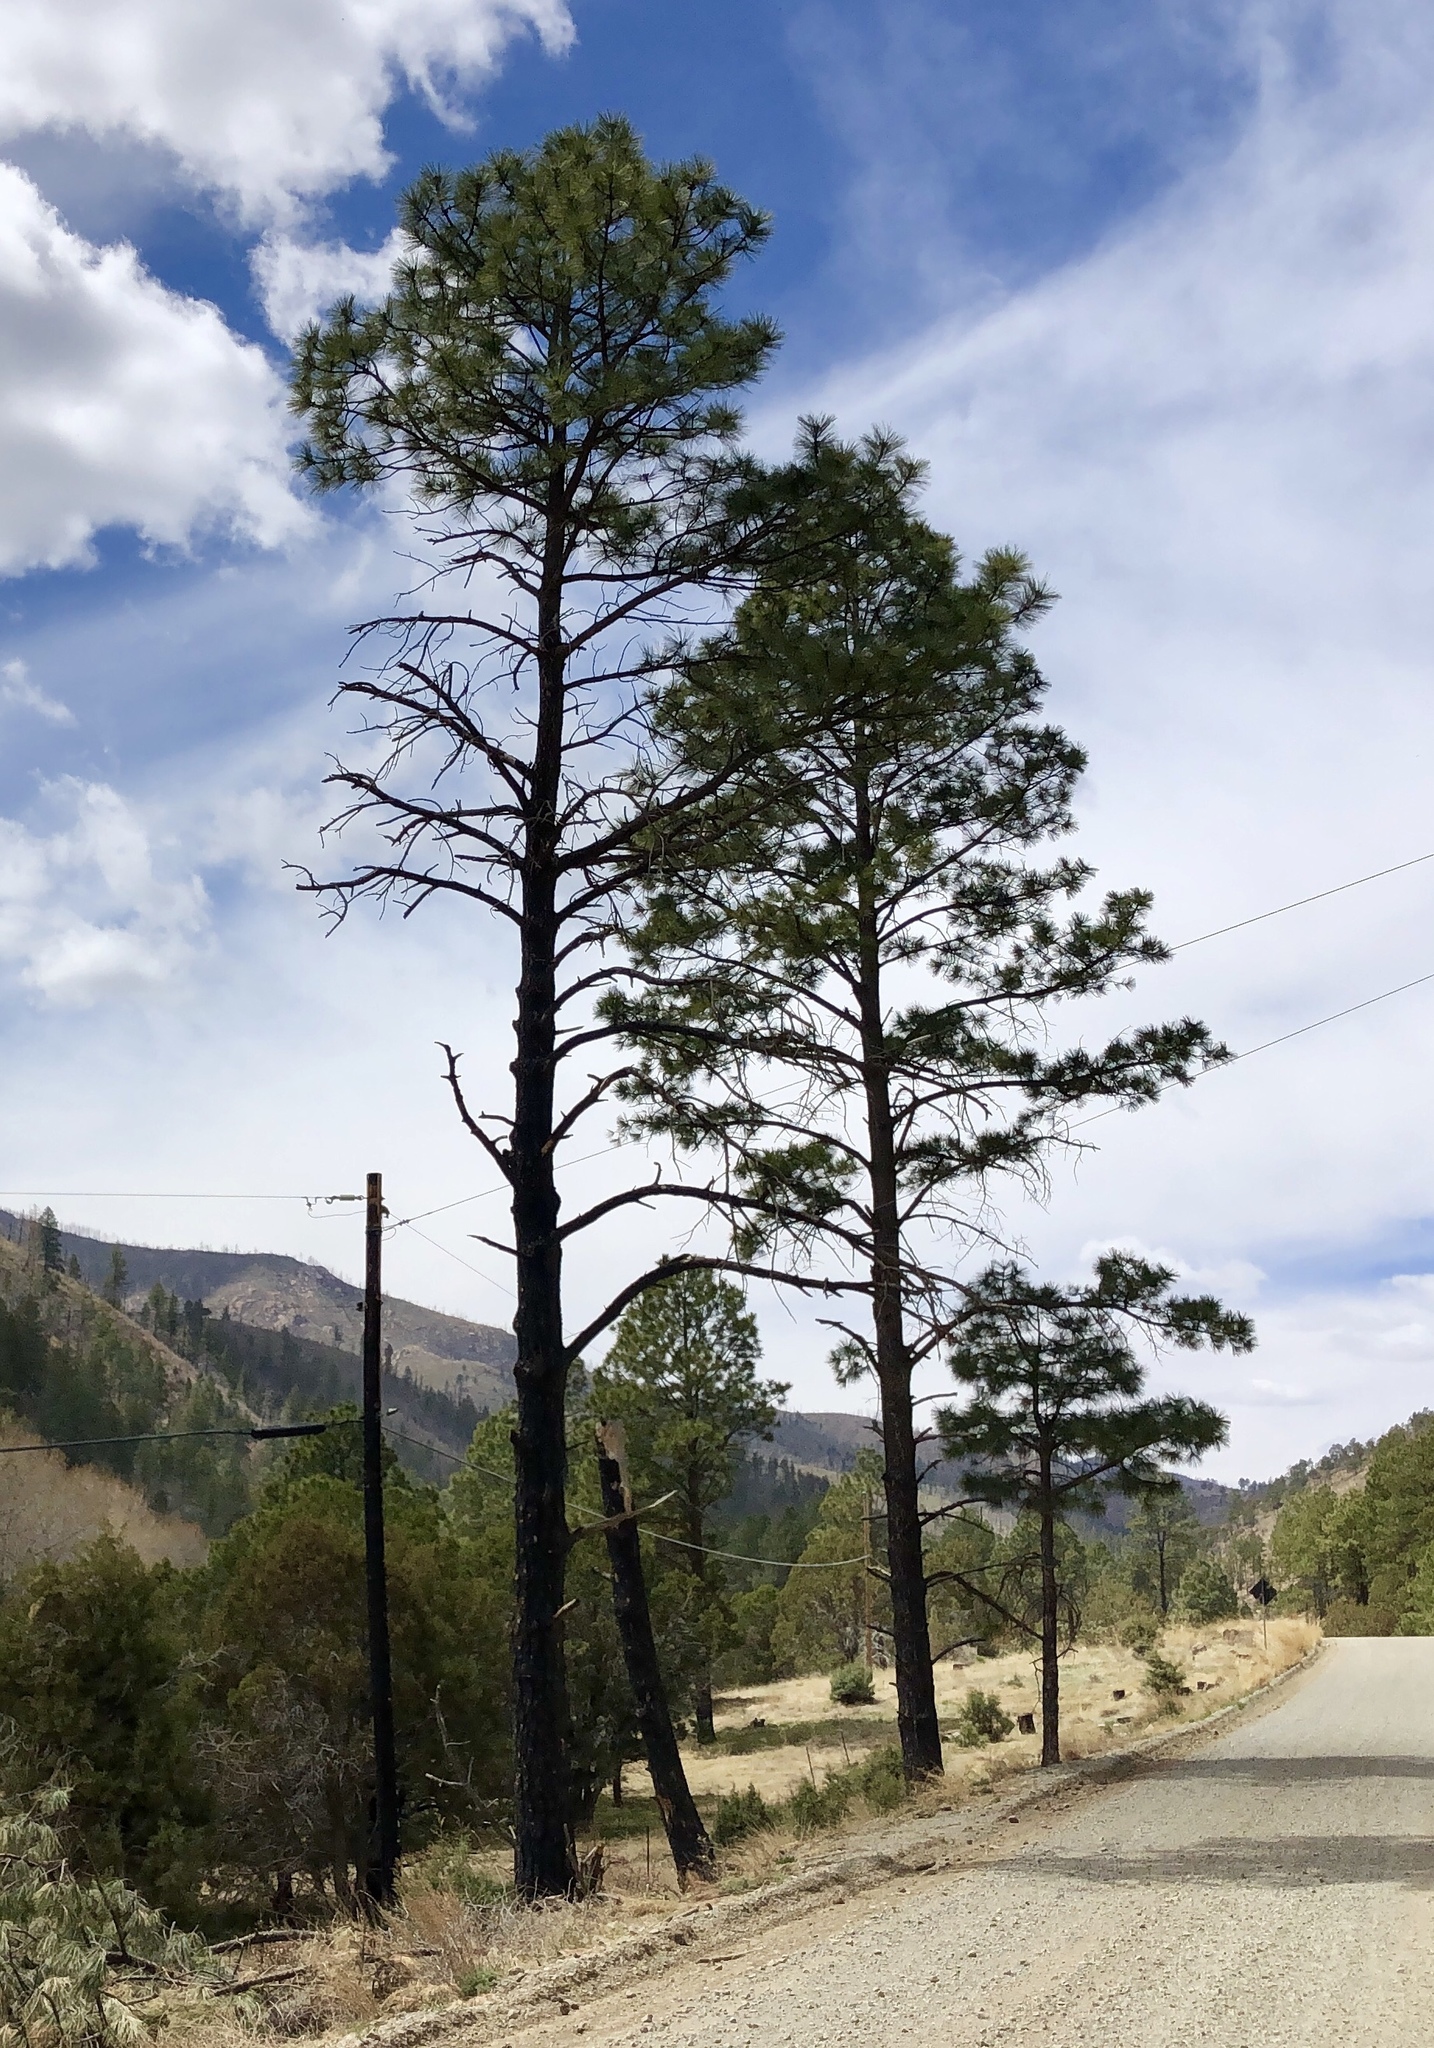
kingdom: Plantae
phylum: Tracheophyta
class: Pinopsida
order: Pinales
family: Pinaceae
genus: Pinus
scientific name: Pinus ponderosa
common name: Western yellow-pine
